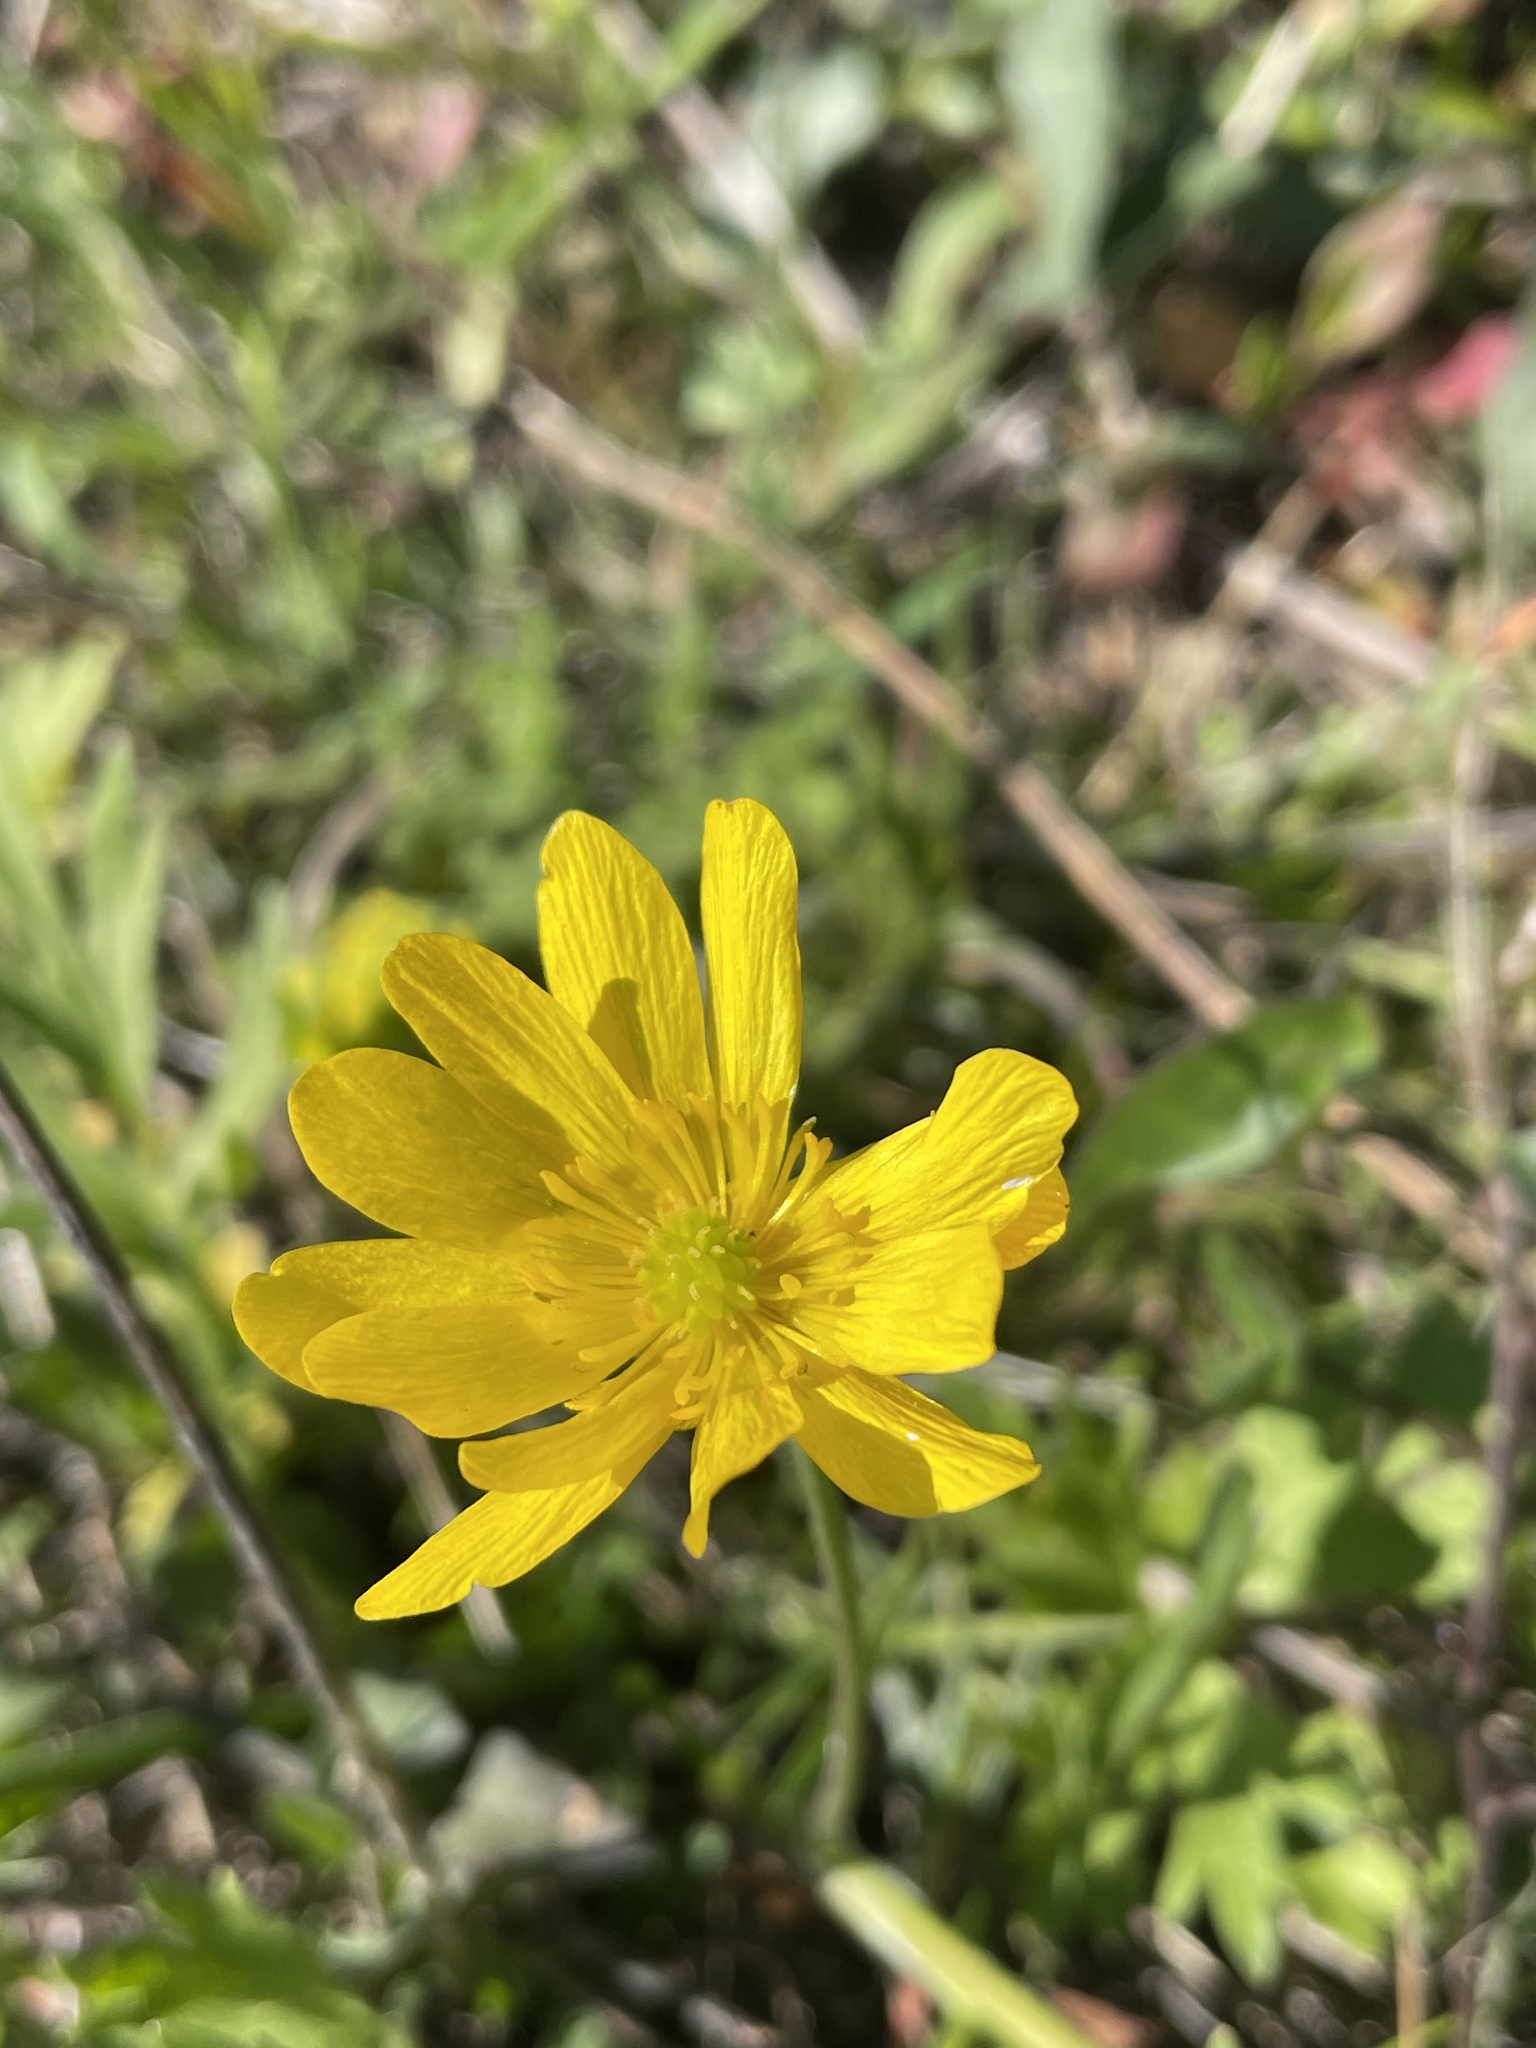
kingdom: Plantae
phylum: Tracheophyta
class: Magnoliopsida
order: Ranunculales
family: Ranunculaceae
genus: Ranunculus
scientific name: Ranunculus californicus
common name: California buttercup
